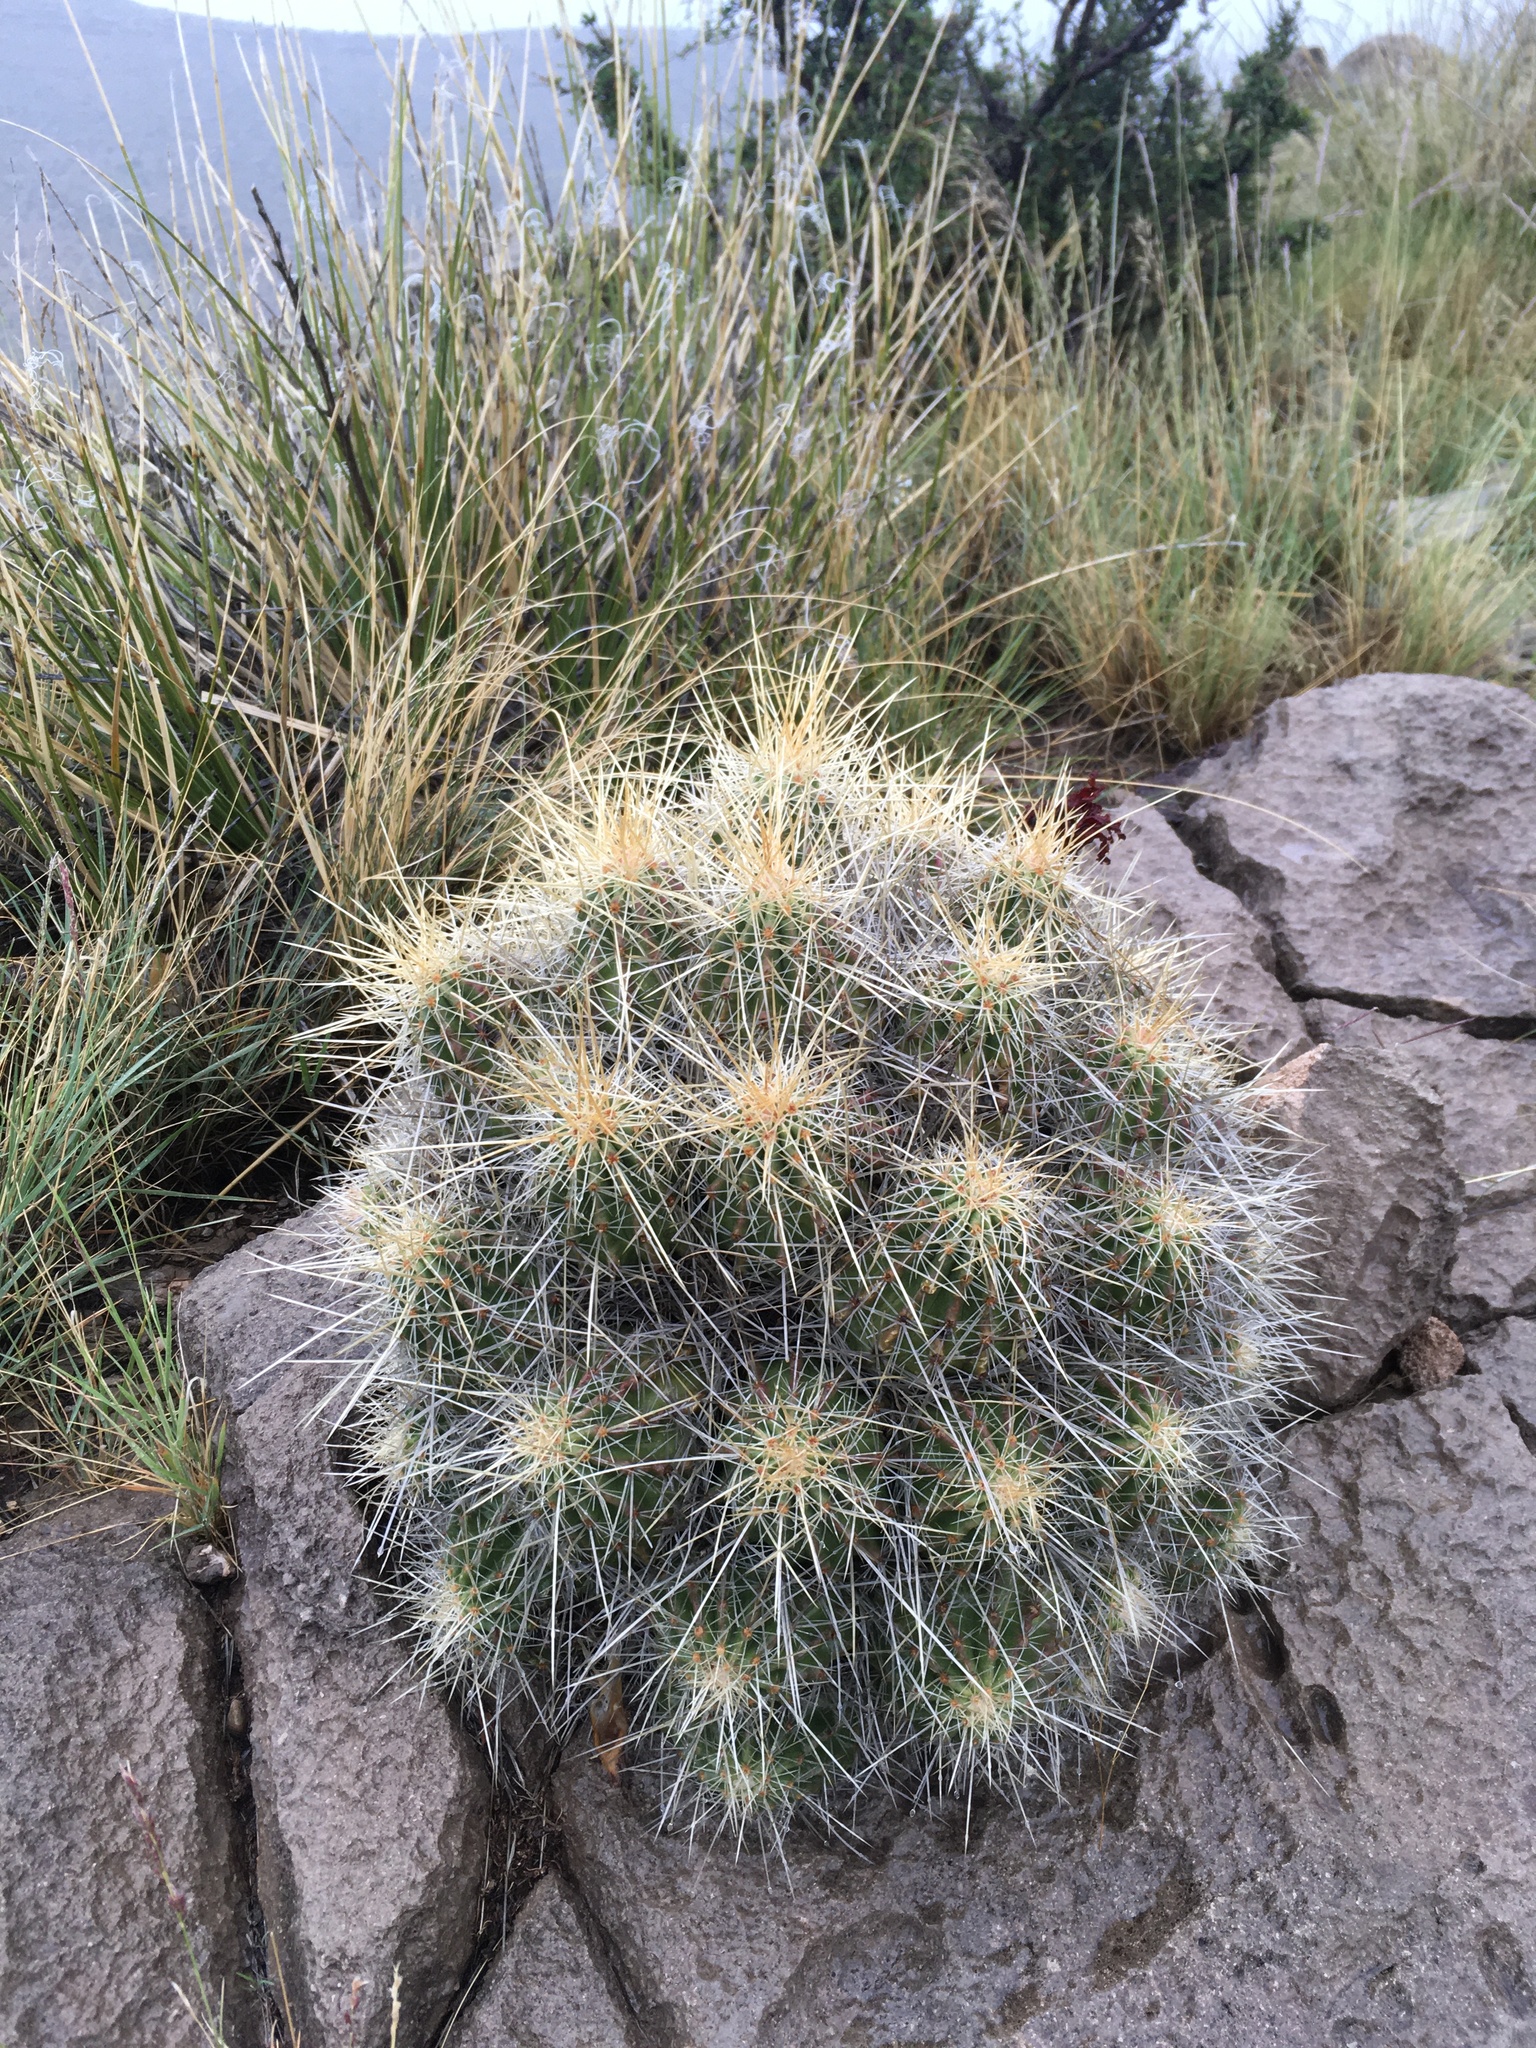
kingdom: Plantae
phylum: Tracheophyta
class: Magnoliopsida
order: Caryophyllales
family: Cactaceae
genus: Echinocereus
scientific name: Echinocereus stramineus
